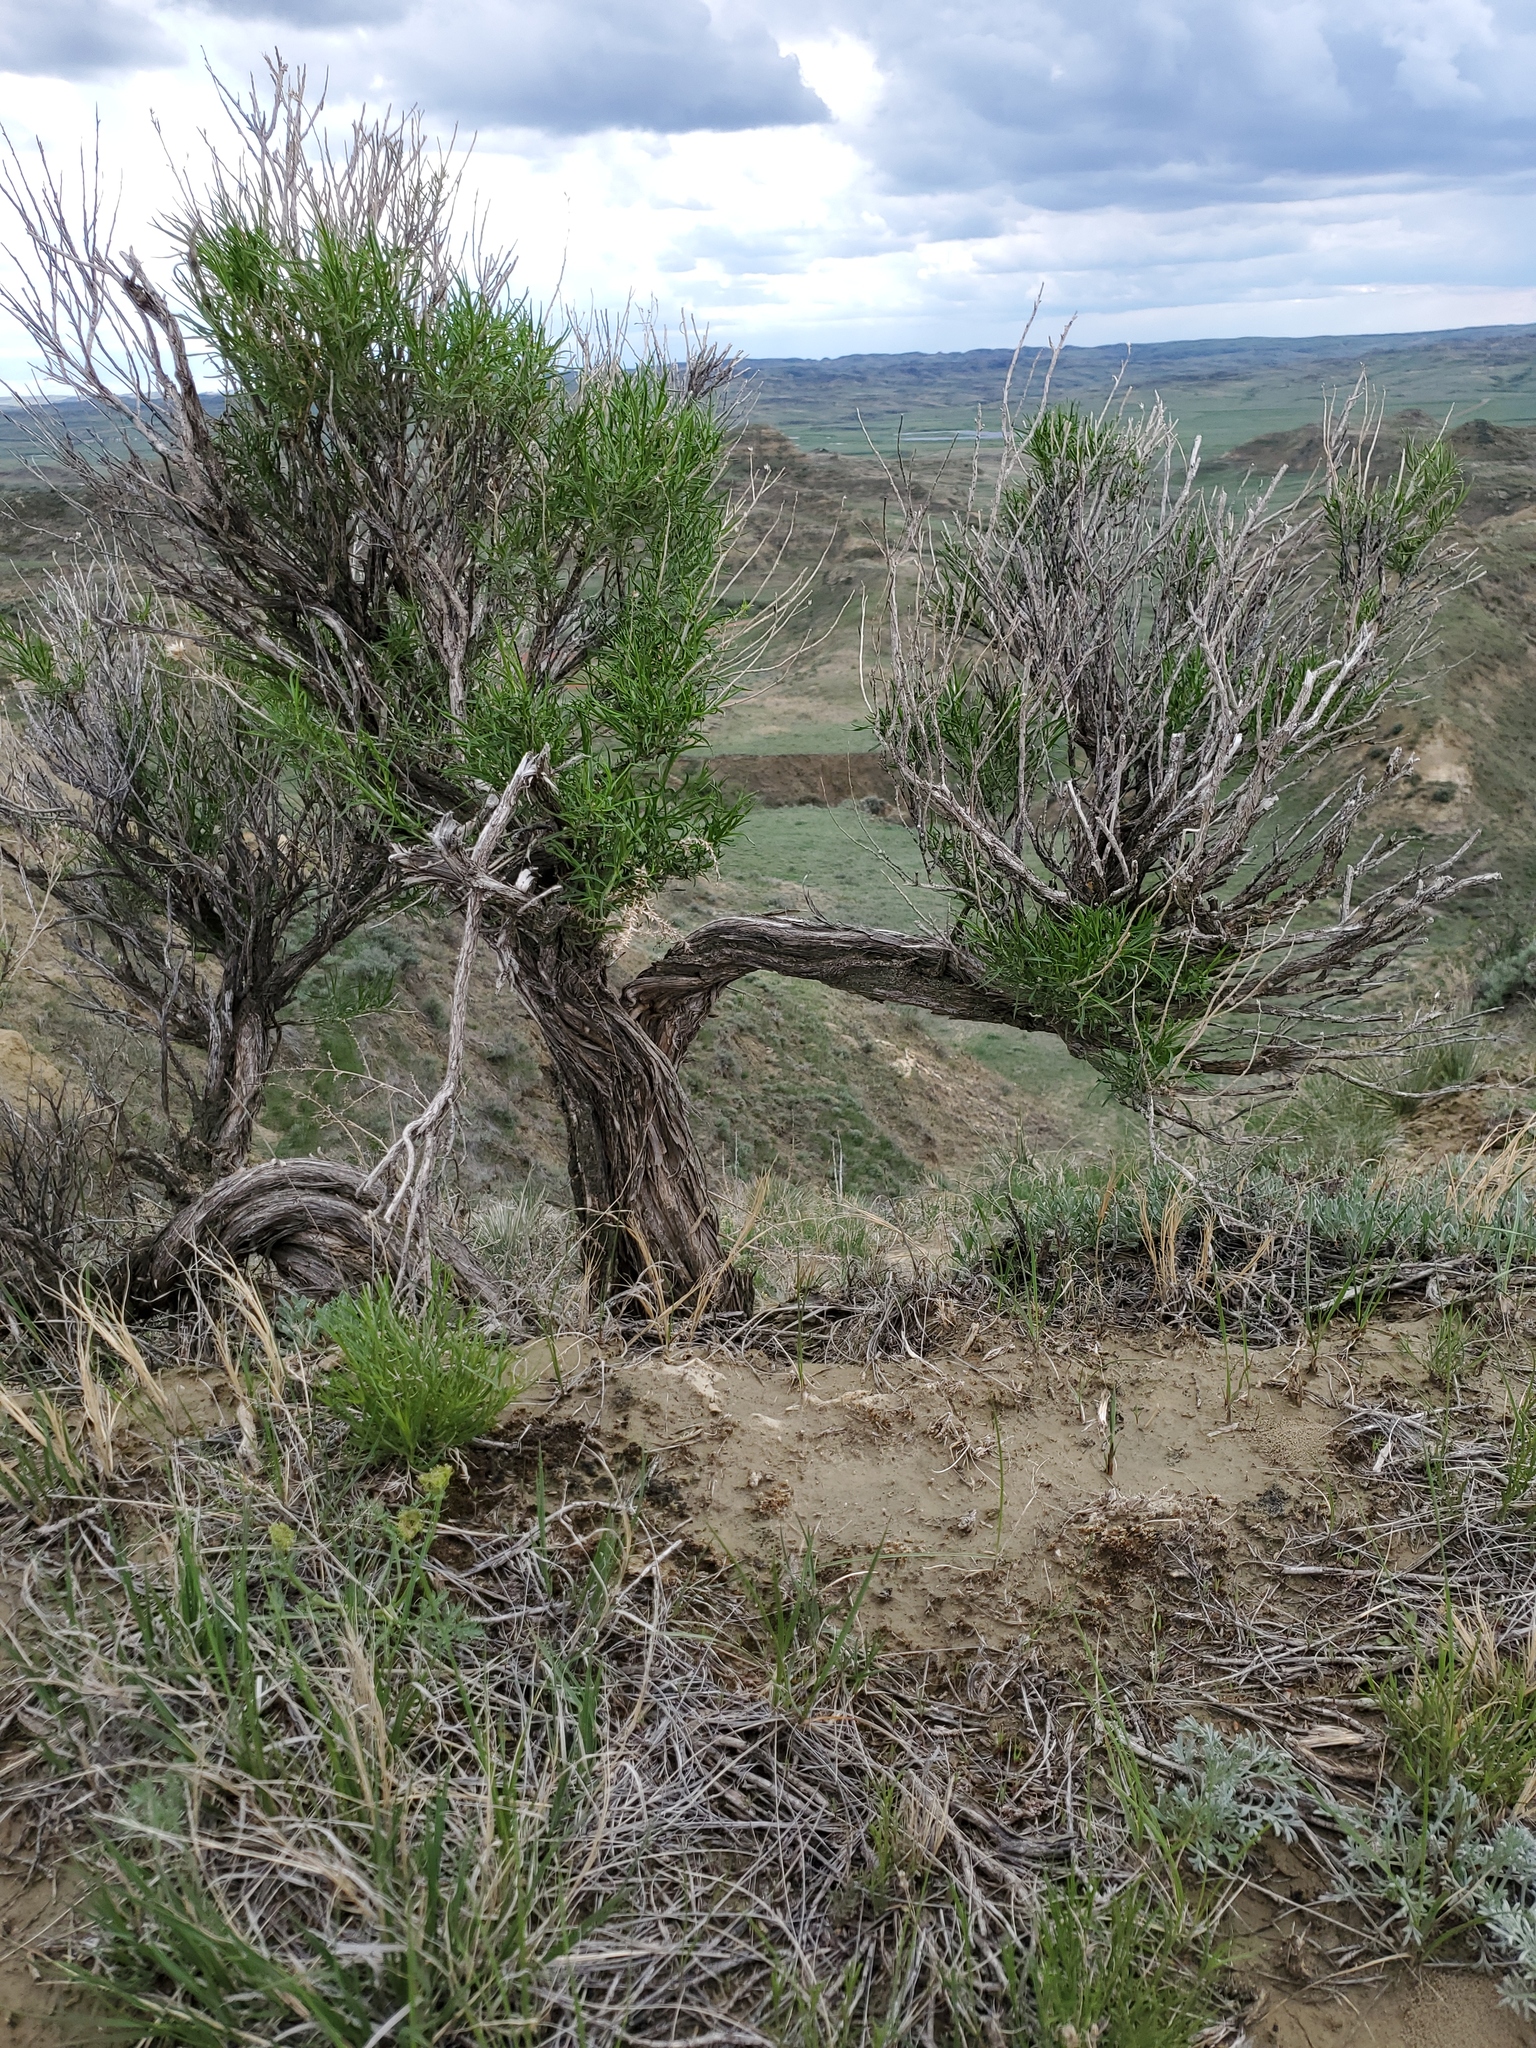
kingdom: Plantae
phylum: Tracheophyta
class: Magnoliopsida
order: Asterales
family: Asteraceae
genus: Ericameria
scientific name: Ericameria nauseosa
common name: Rubber rabbitbrush
